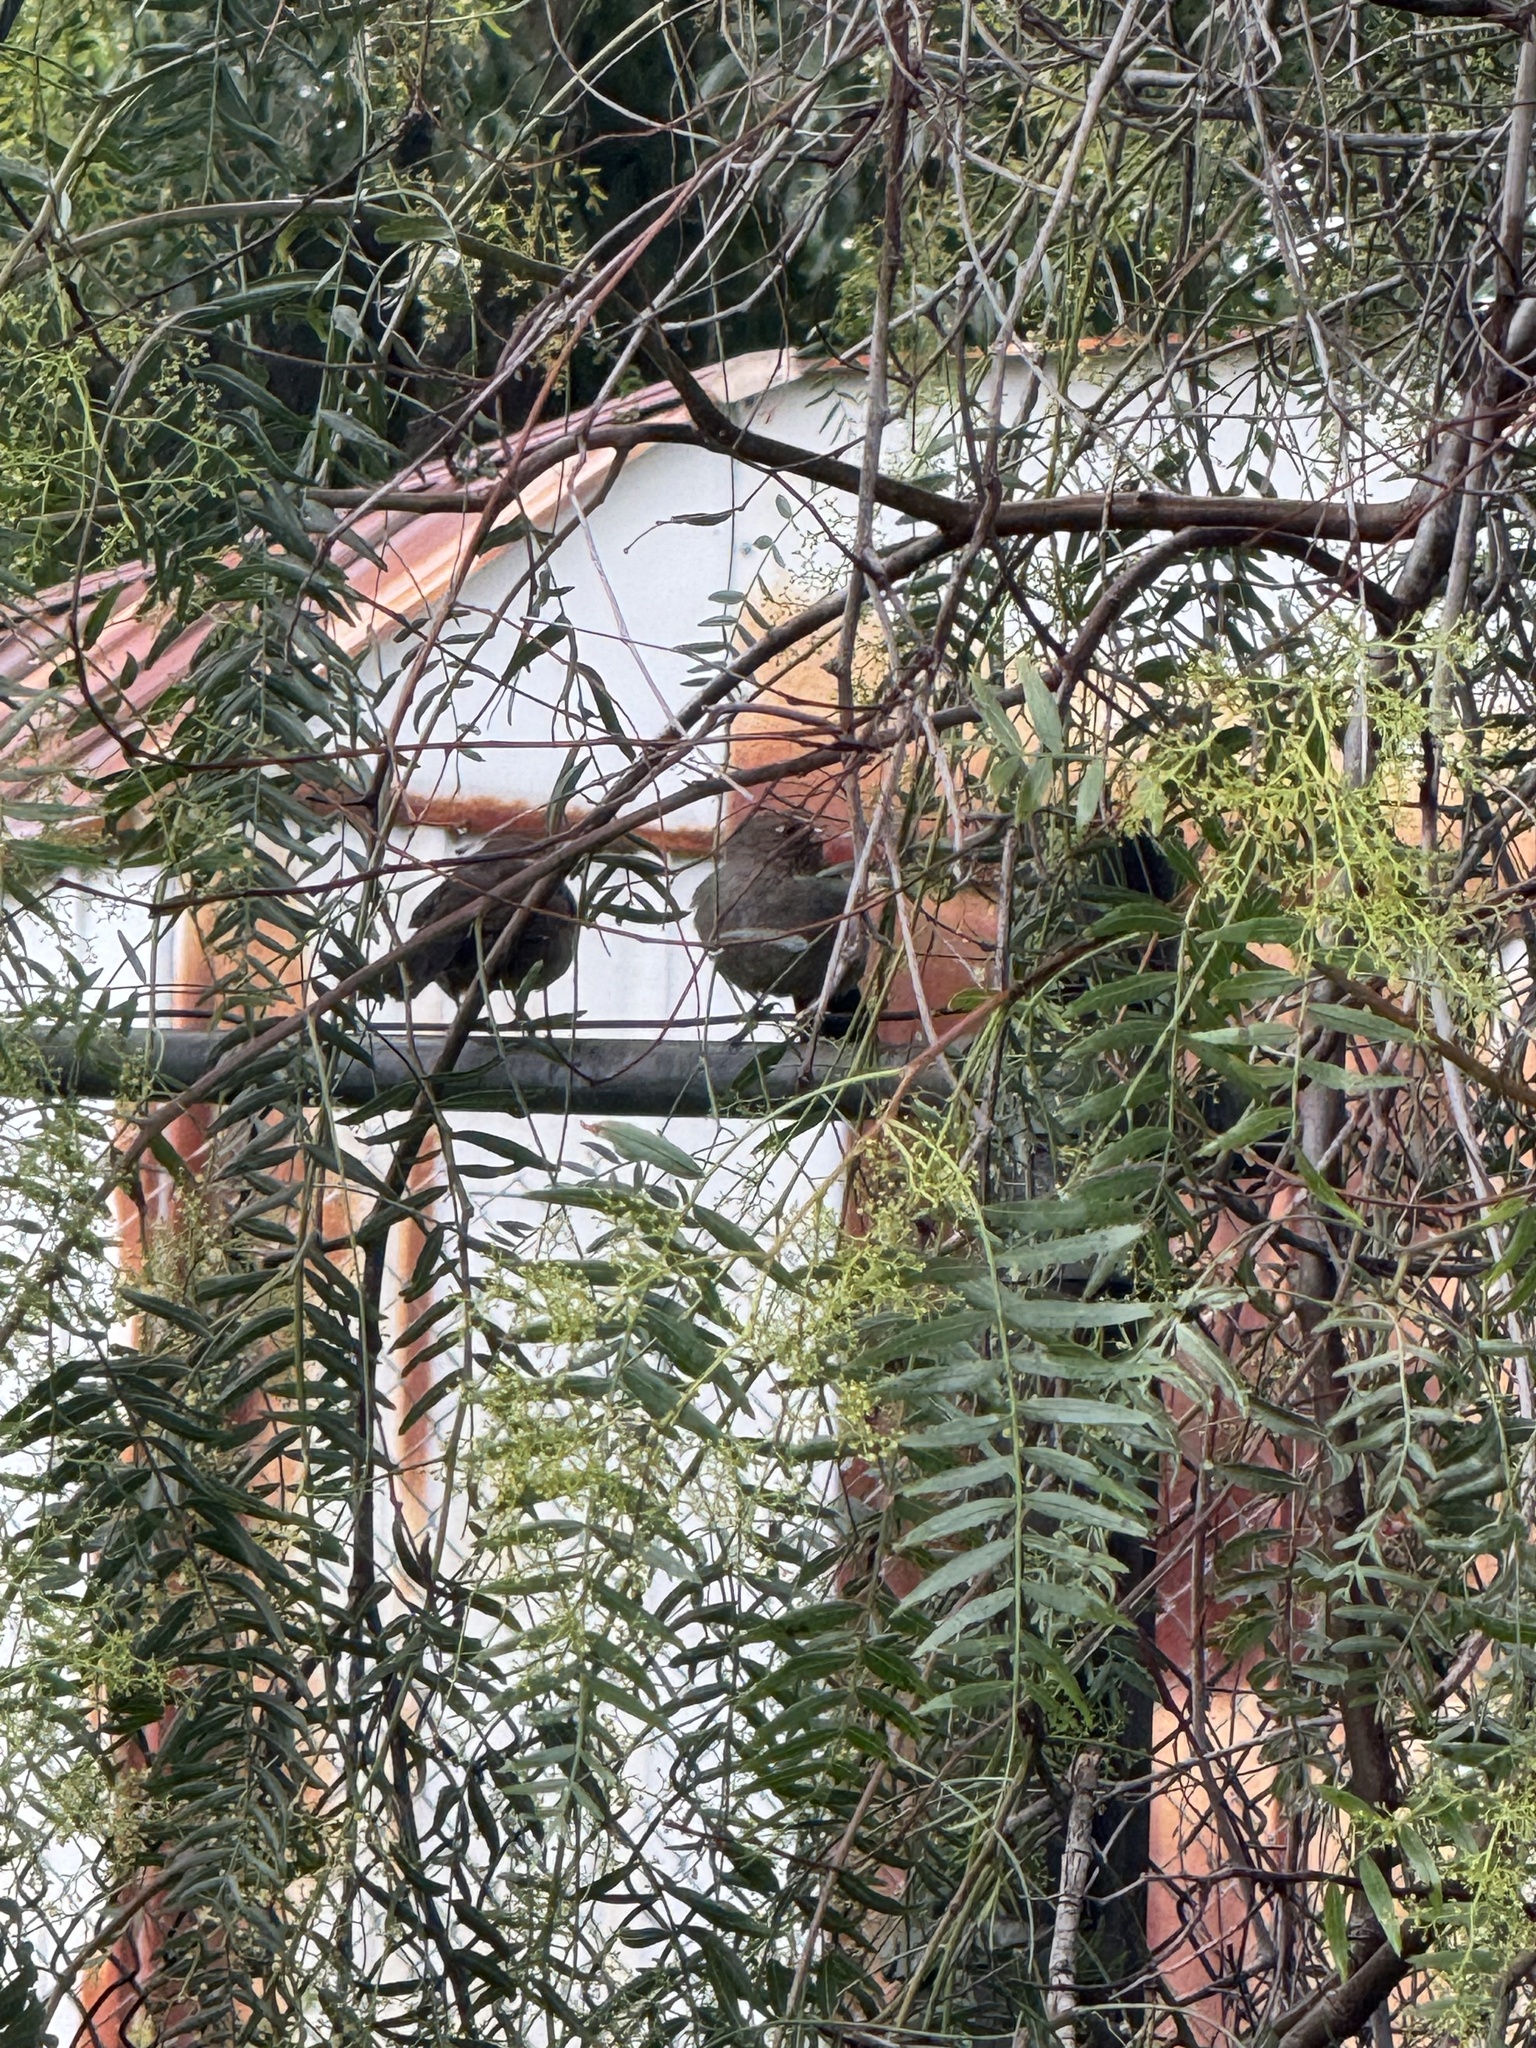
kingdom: Animalia
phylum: Chordata
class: Aves
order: Passeriformes
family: Passerellidae
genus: Melozone
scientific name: Melozone crissalis
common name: California towhee
